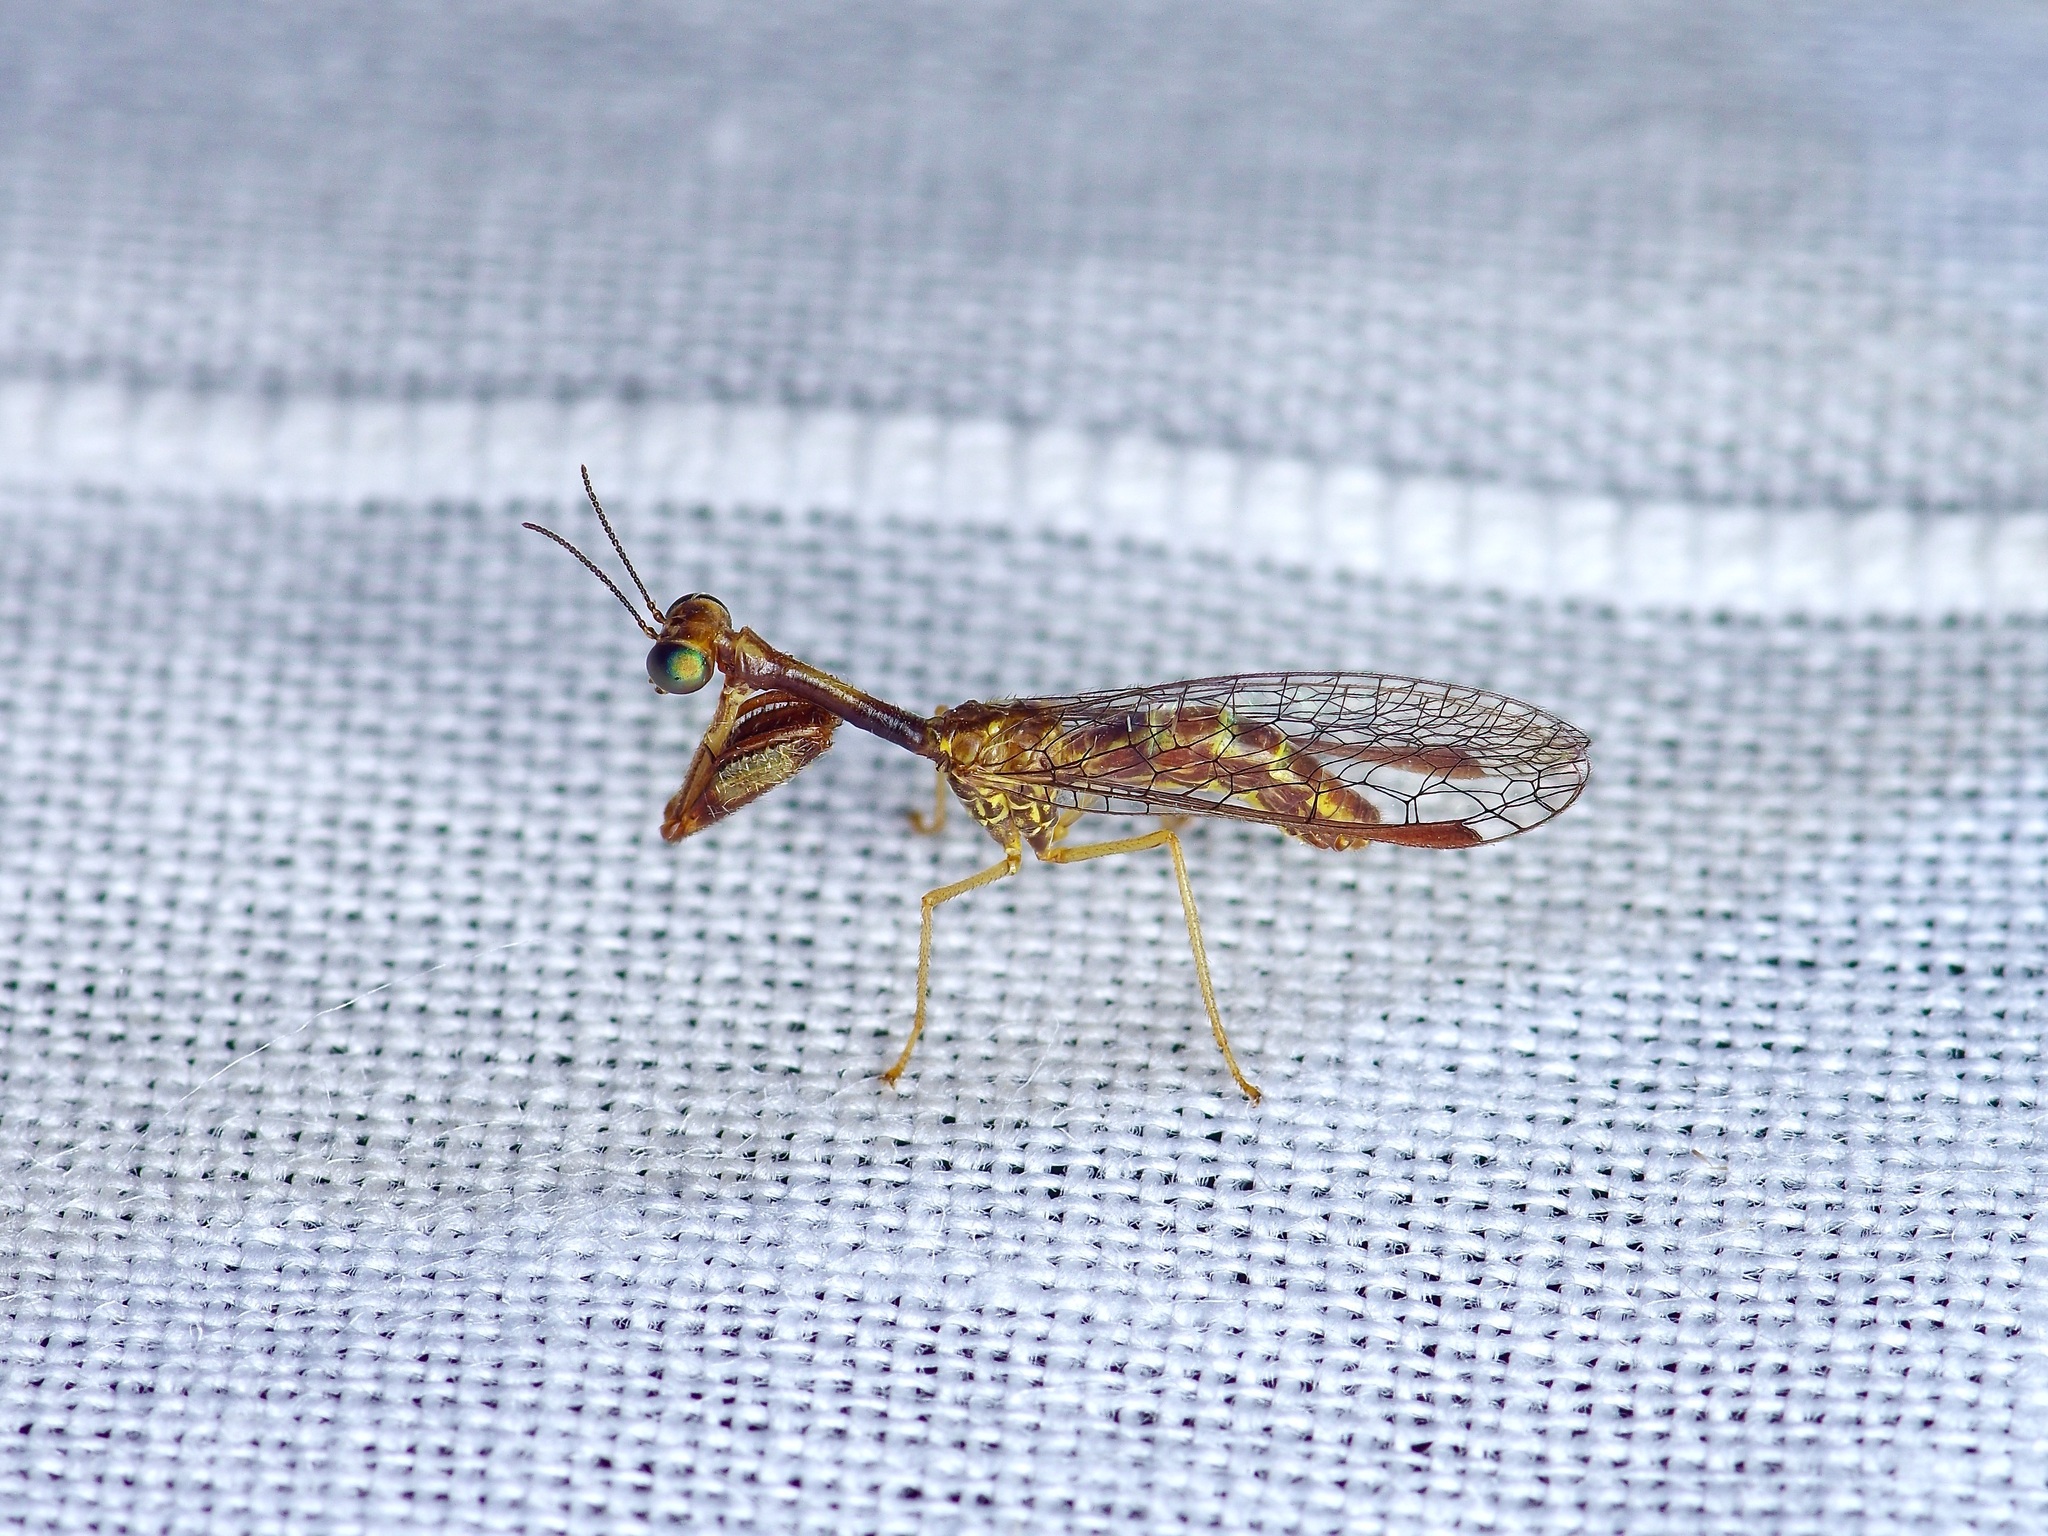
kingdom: Animalia
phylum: Arthropoda
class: Insecta
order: Neuroptera
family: Mantispidae
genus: Leptomantispa
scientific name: Leptomantispa pulchella
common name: Stevens's mantidfly
